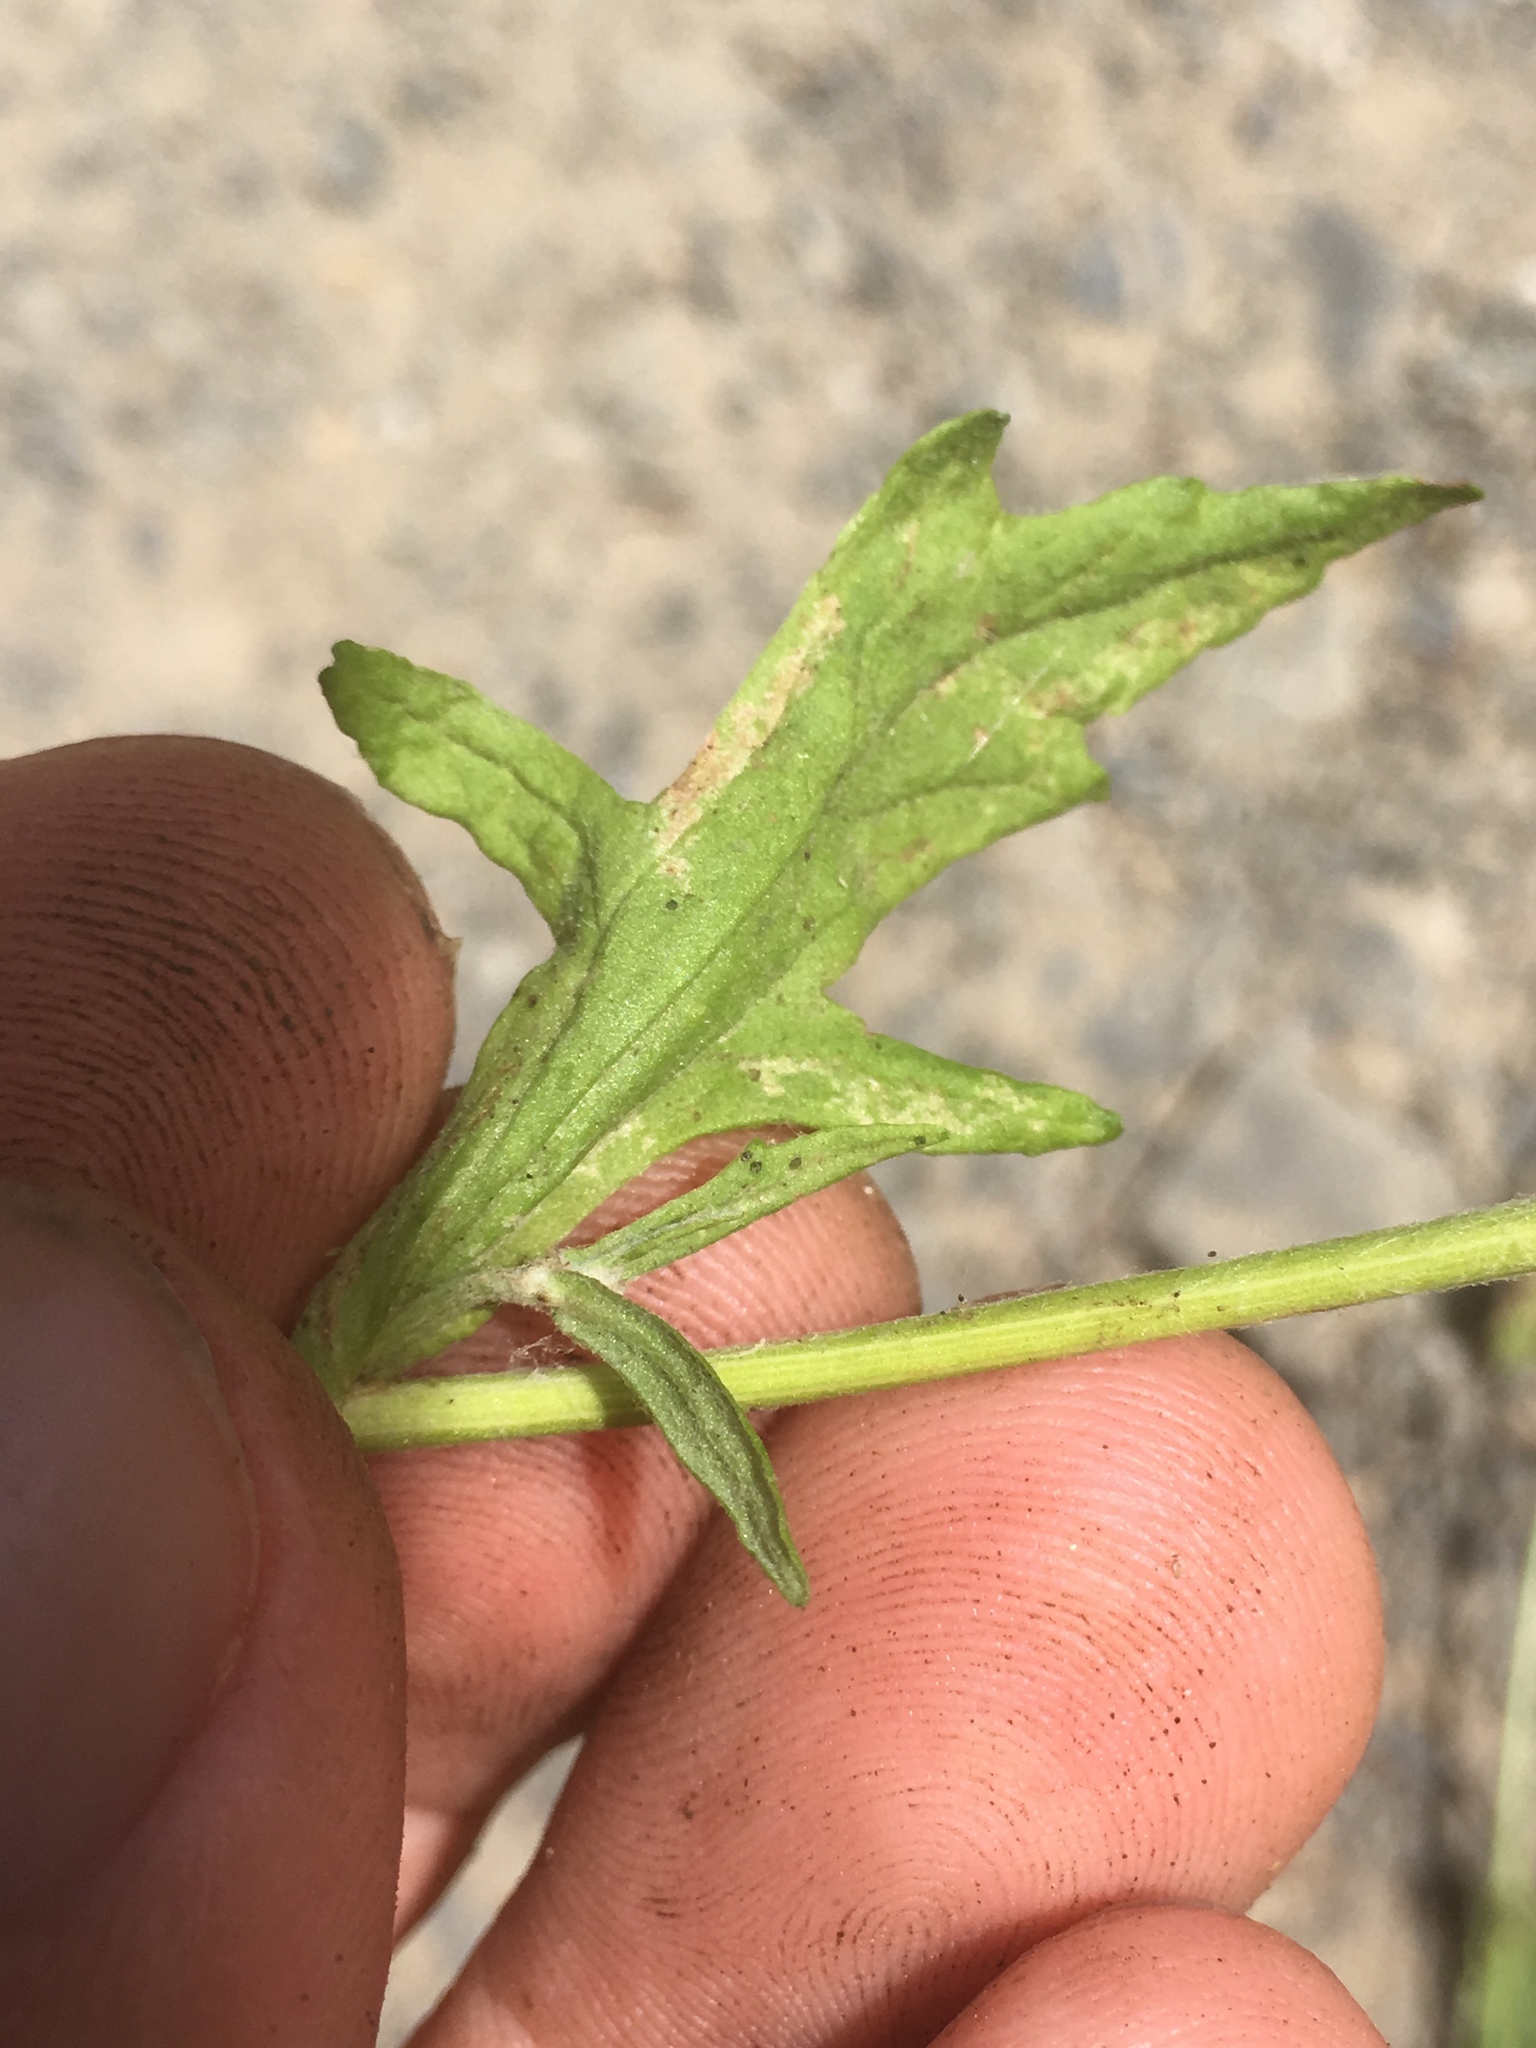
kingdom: Plantae
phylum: Tracheophyta
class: Magnoliopsida
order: Asterales
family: Asteraceae
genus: Eriophyllum
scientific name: Eriophyllum lanatum
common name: Common woolly-sunflower
